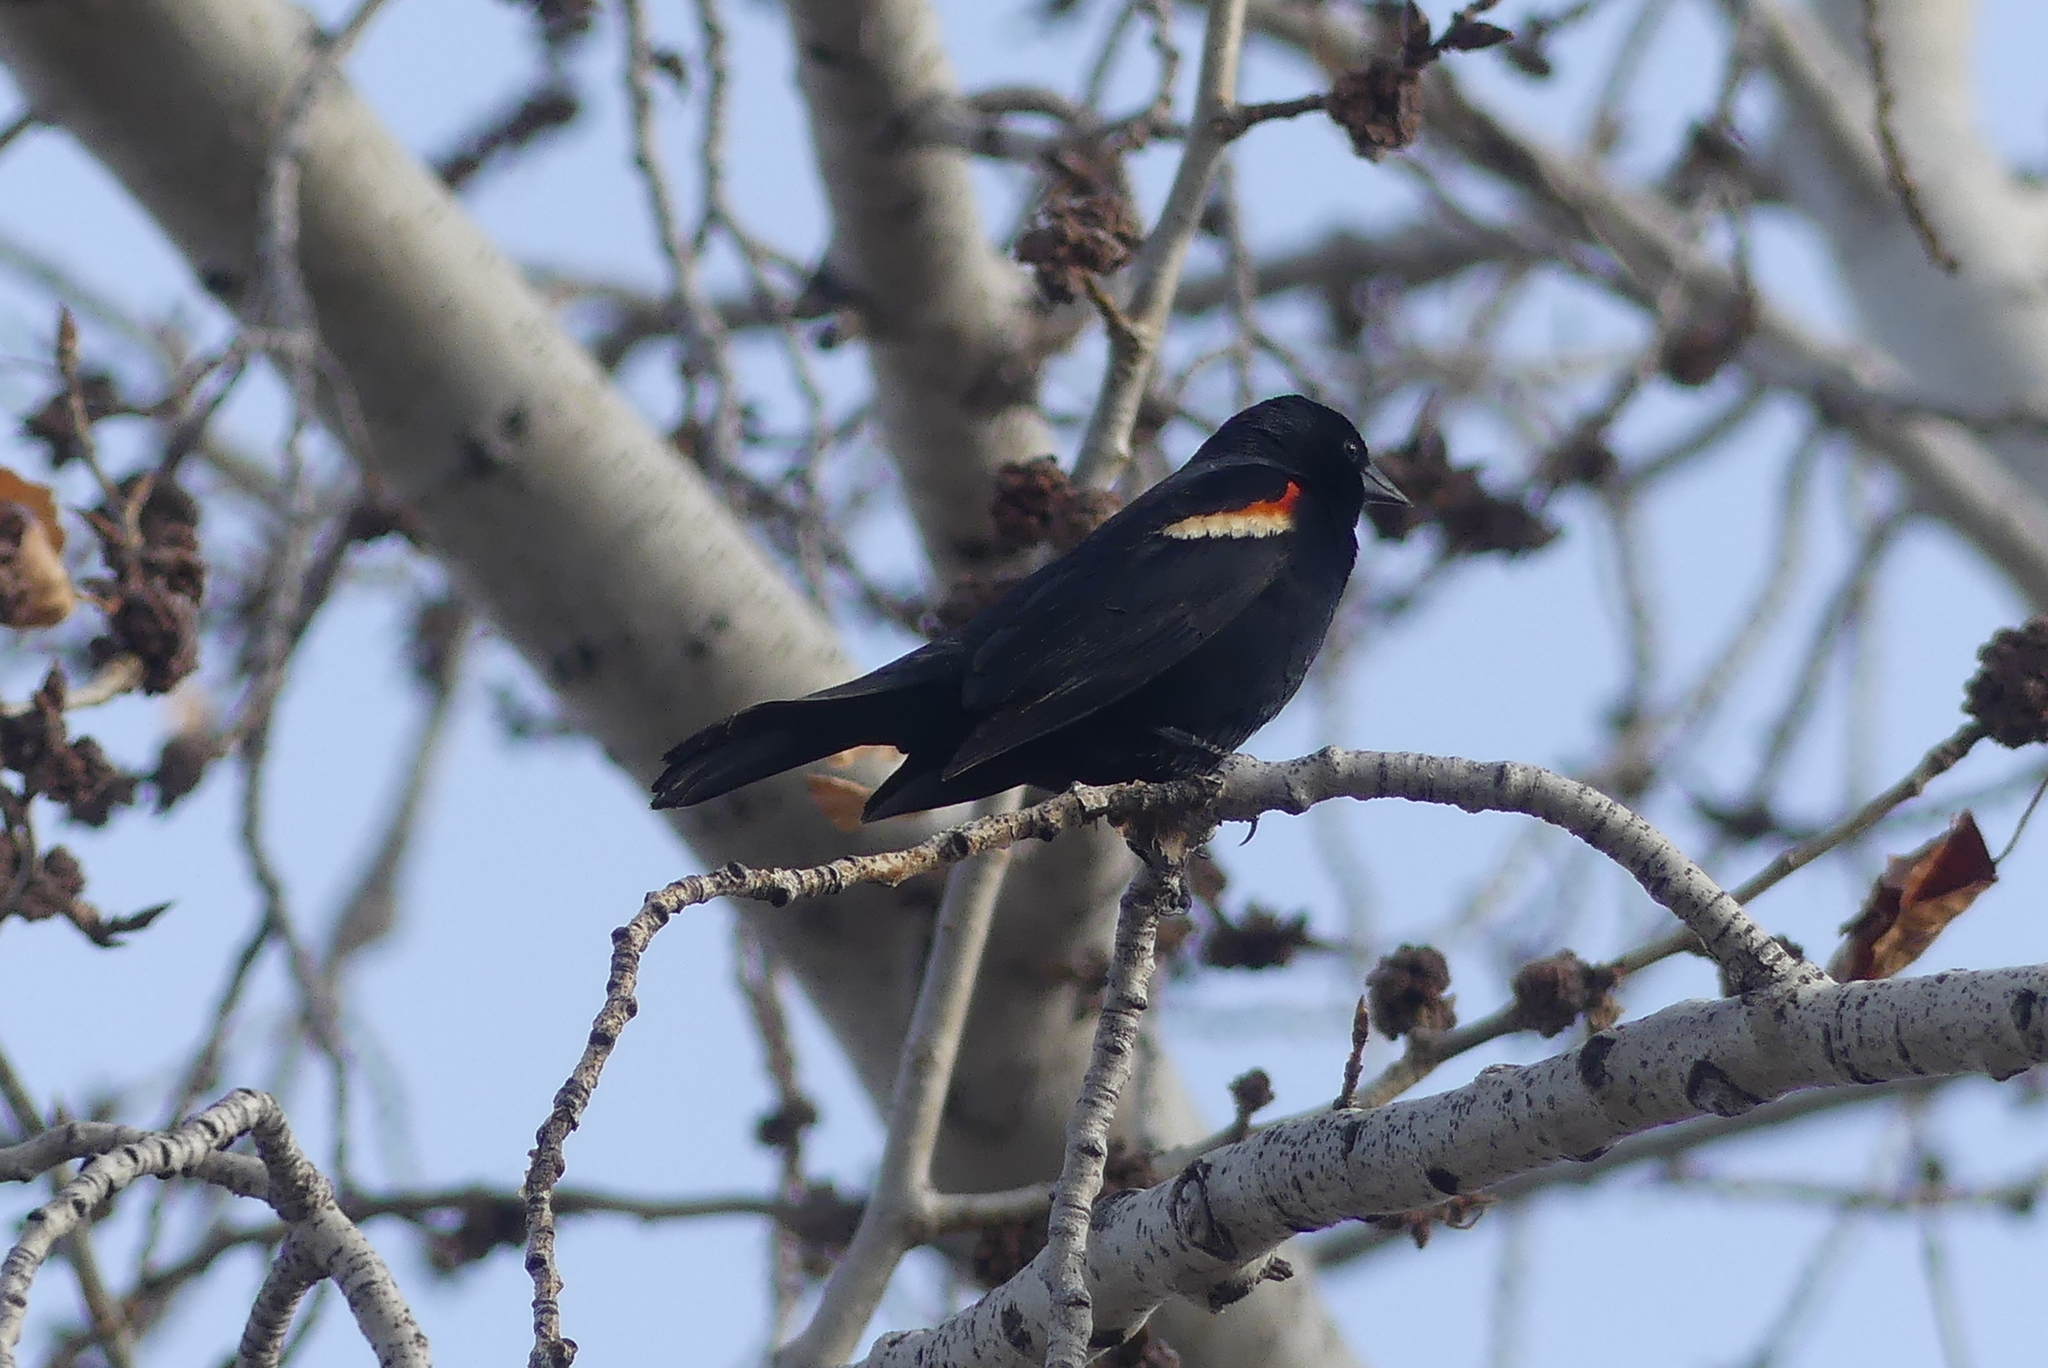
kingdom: Animalia
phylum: Chordata
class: Aves
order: Passeriformes
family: Icteridae
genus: Agelaius
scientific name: Agelaius phoeniceus
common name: Red-winged blackbird
